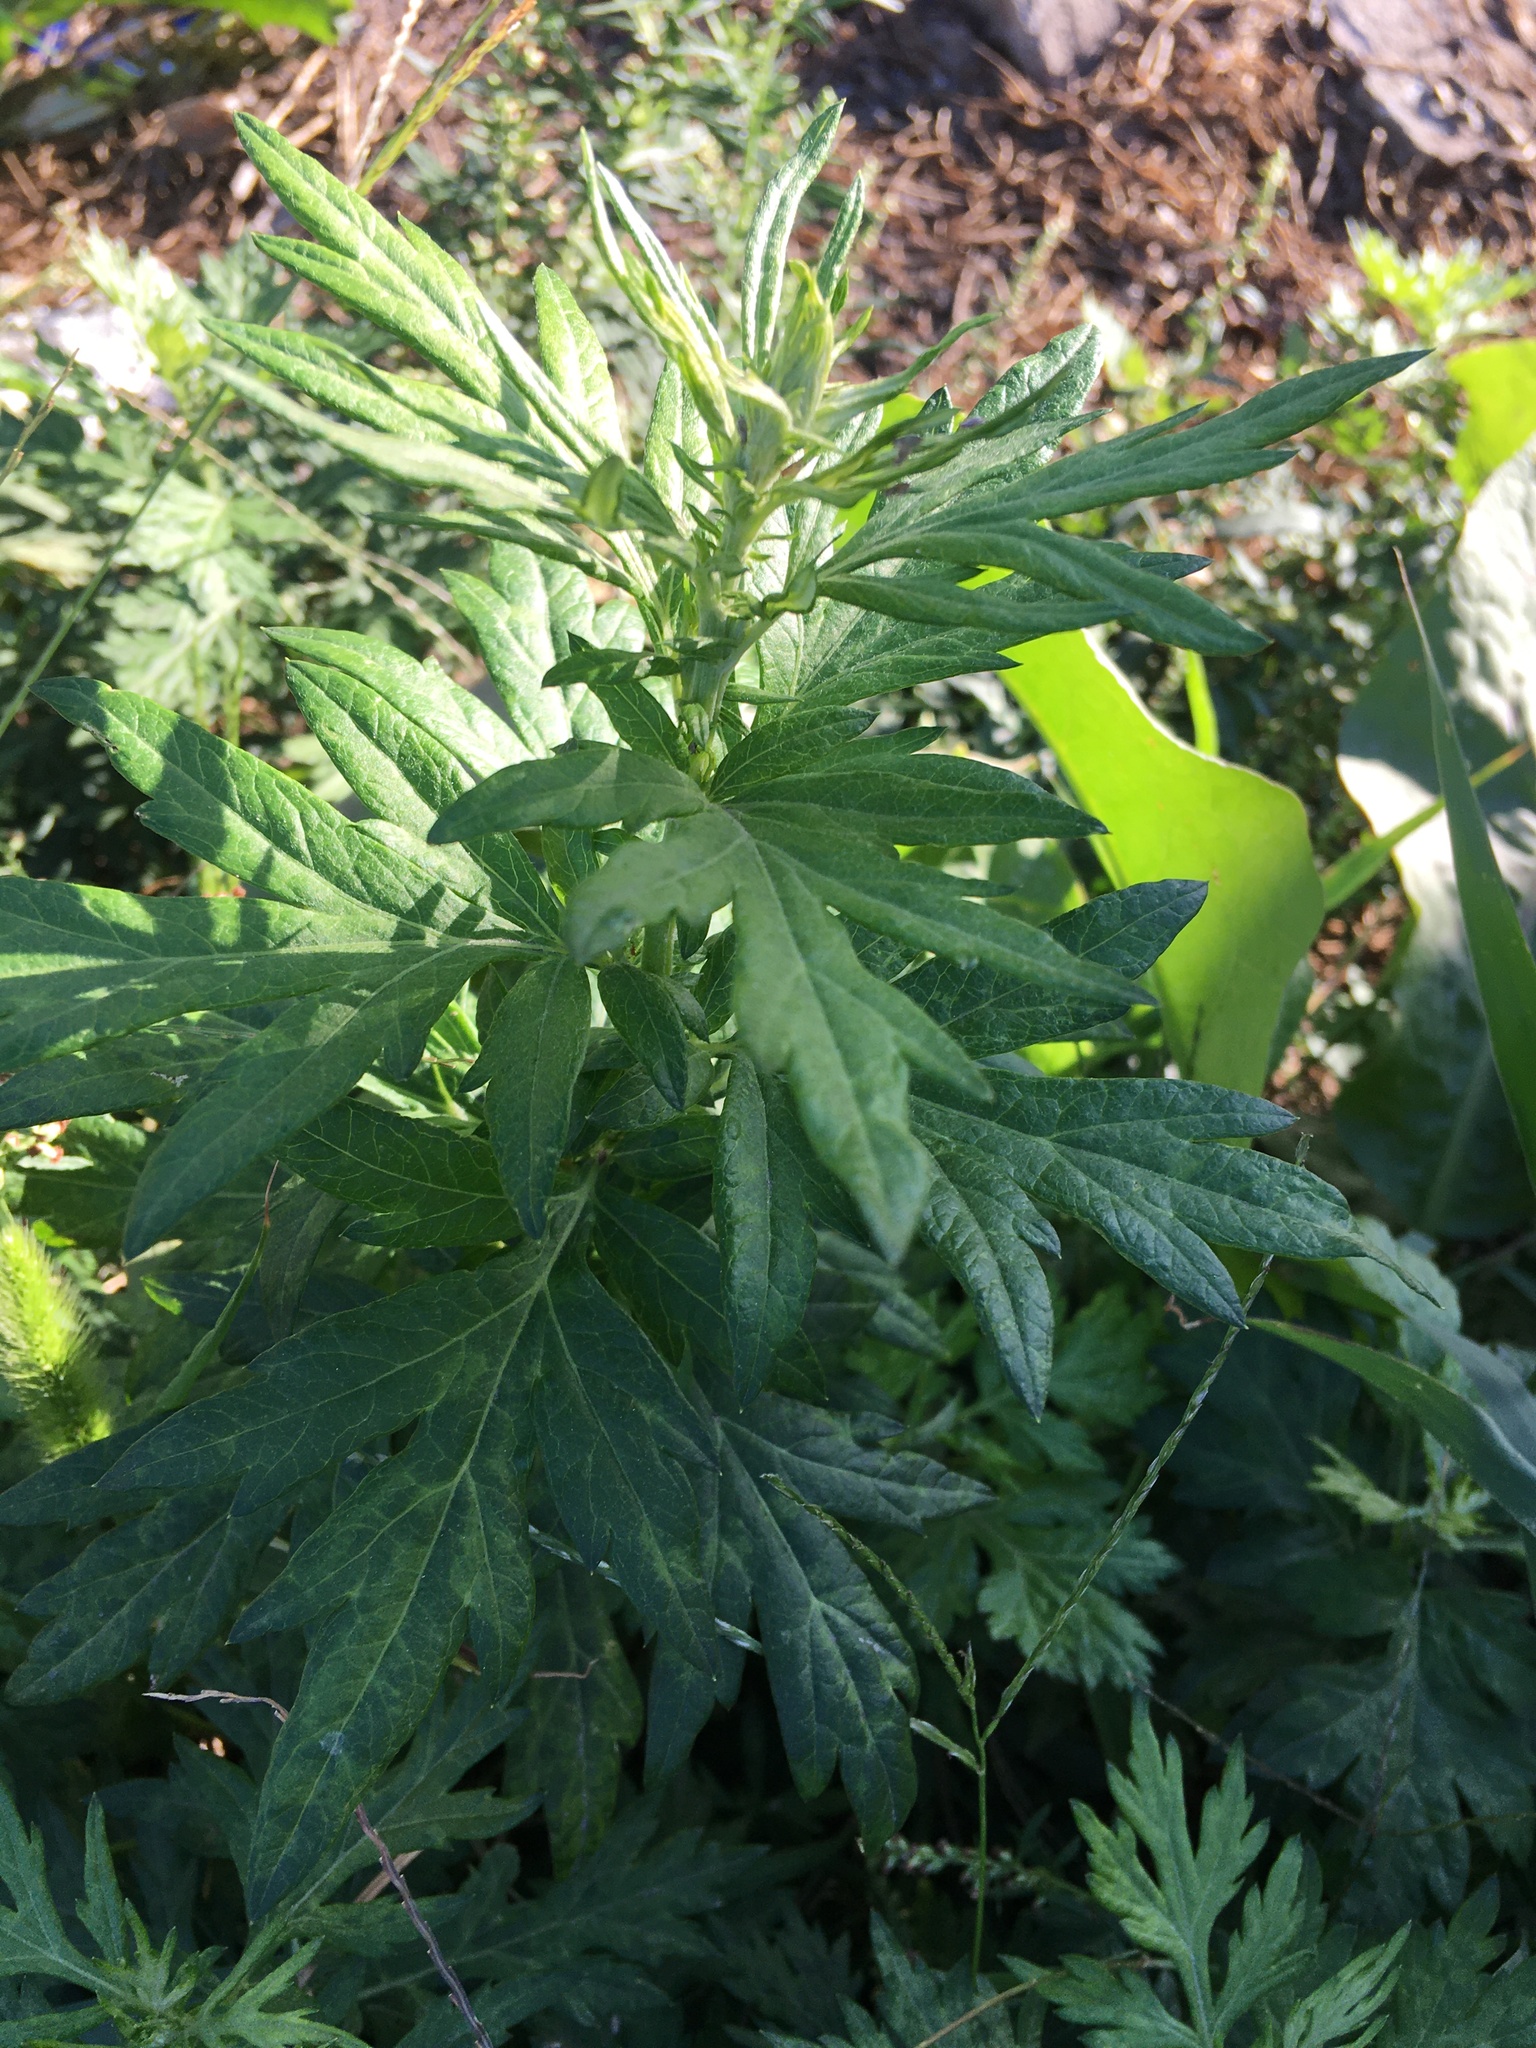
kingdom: Plantae
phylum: Tracheophyta
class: Magnoliopsida
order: Asterales
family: Asteraceae
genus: Artemisia
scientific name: Artemisia vulgaris
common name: Mugwort
